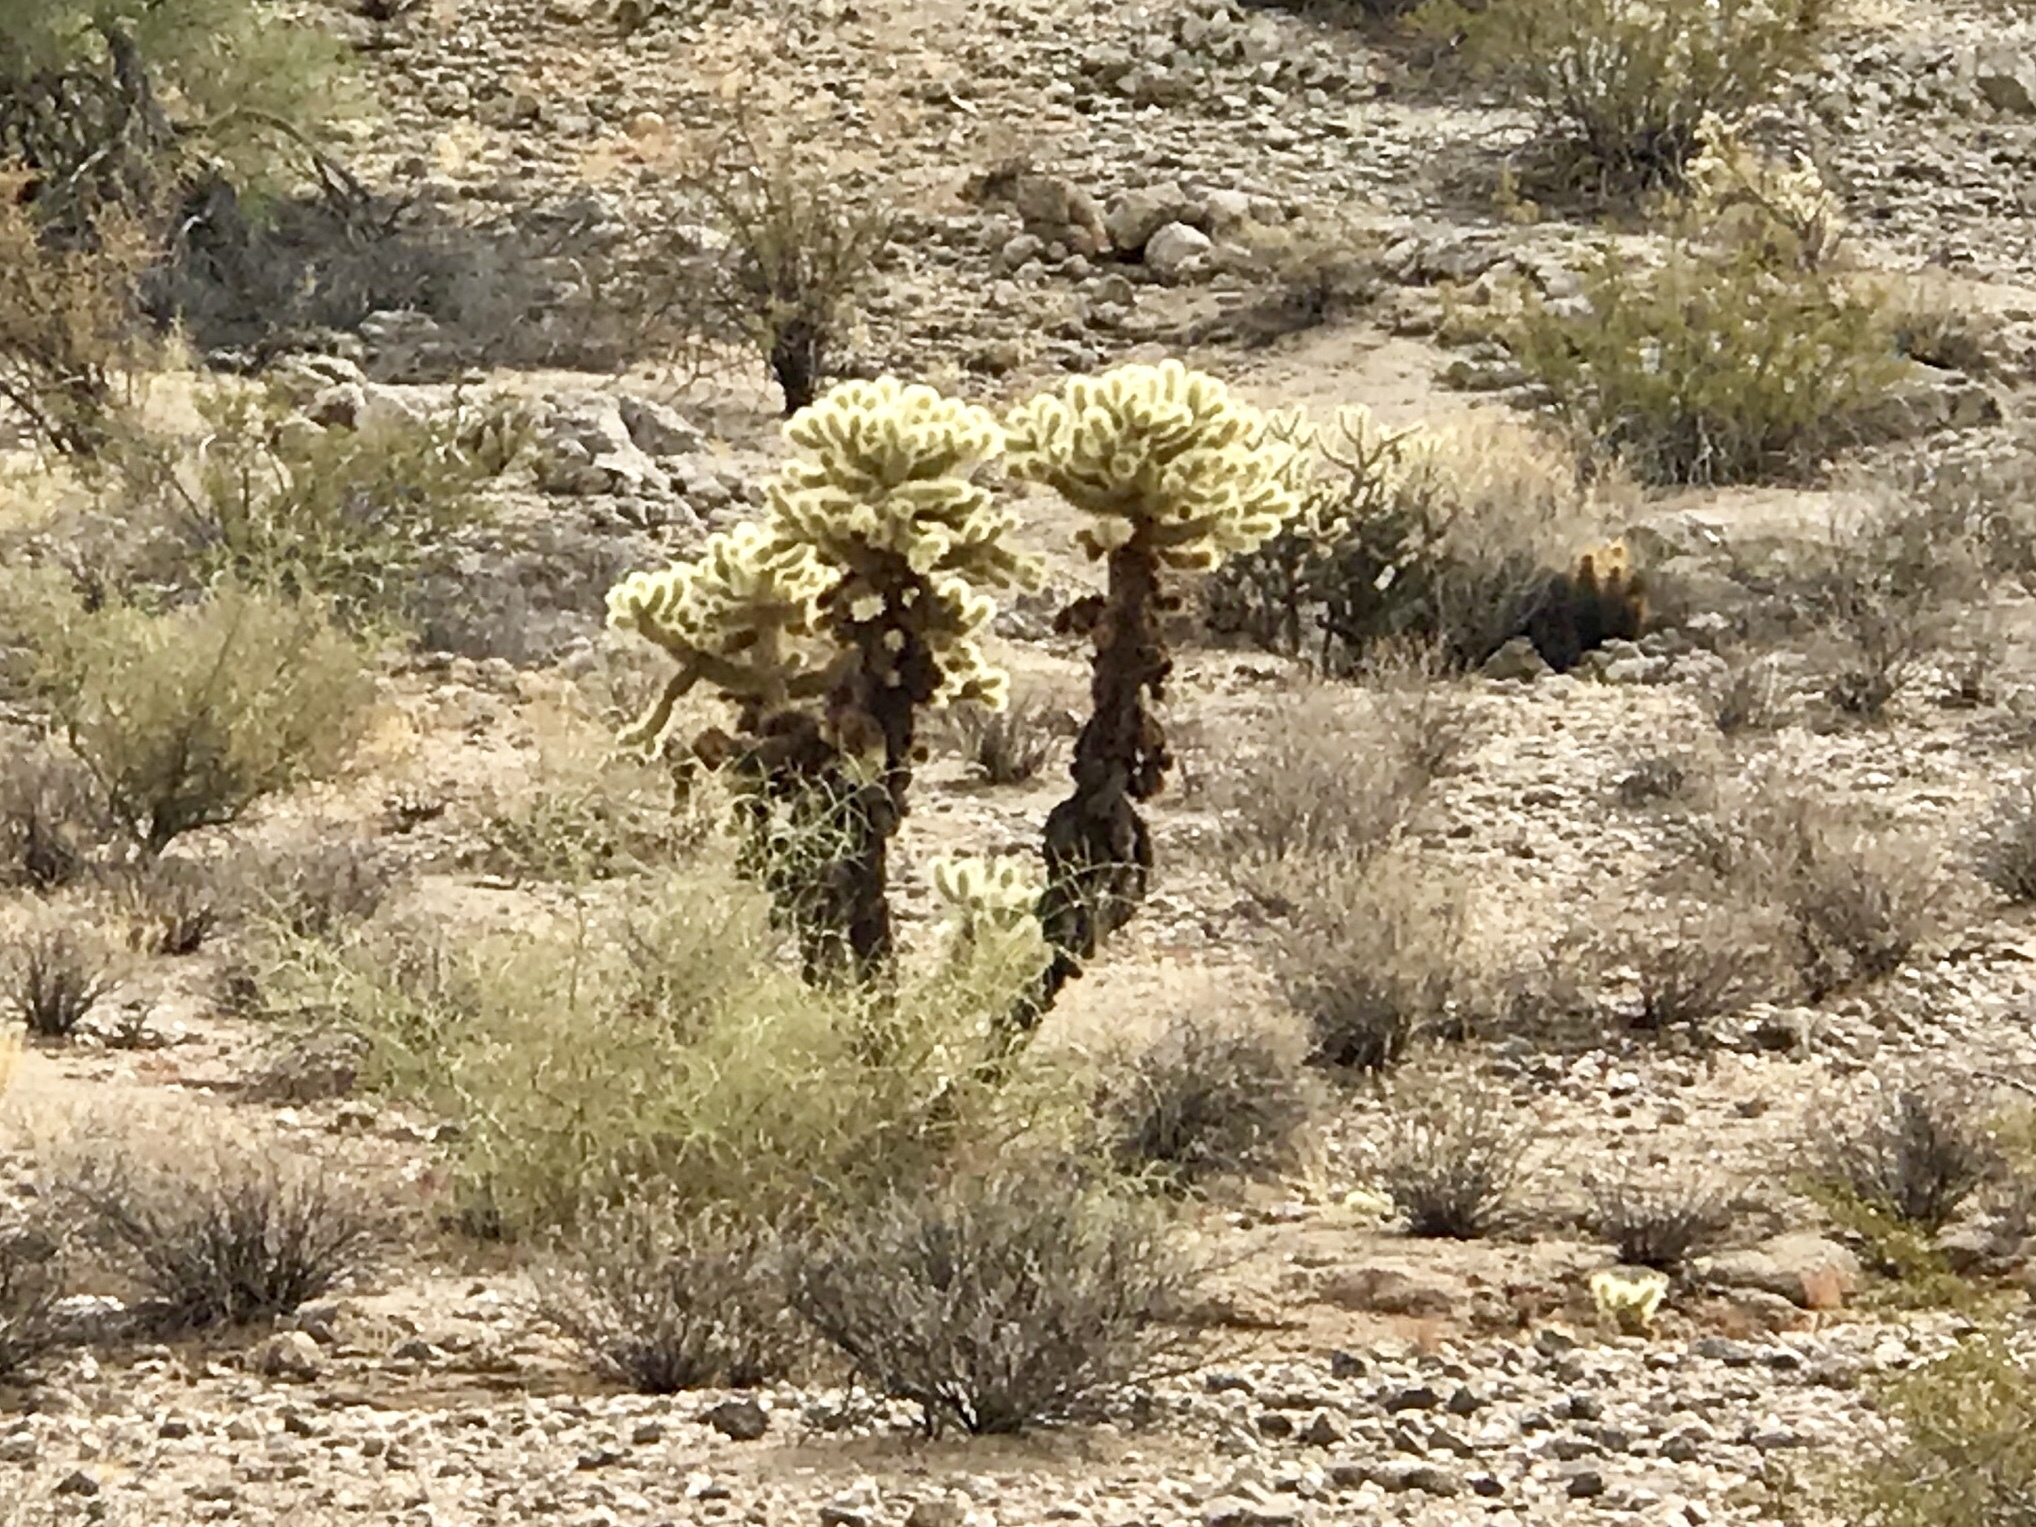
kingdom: Plantae
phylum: Tracheophyta
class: Magnoliopsida
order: Caryophyllales
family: Cactaceae
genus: Cylindropuntia
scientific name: Cylindropuntia fosbergii
